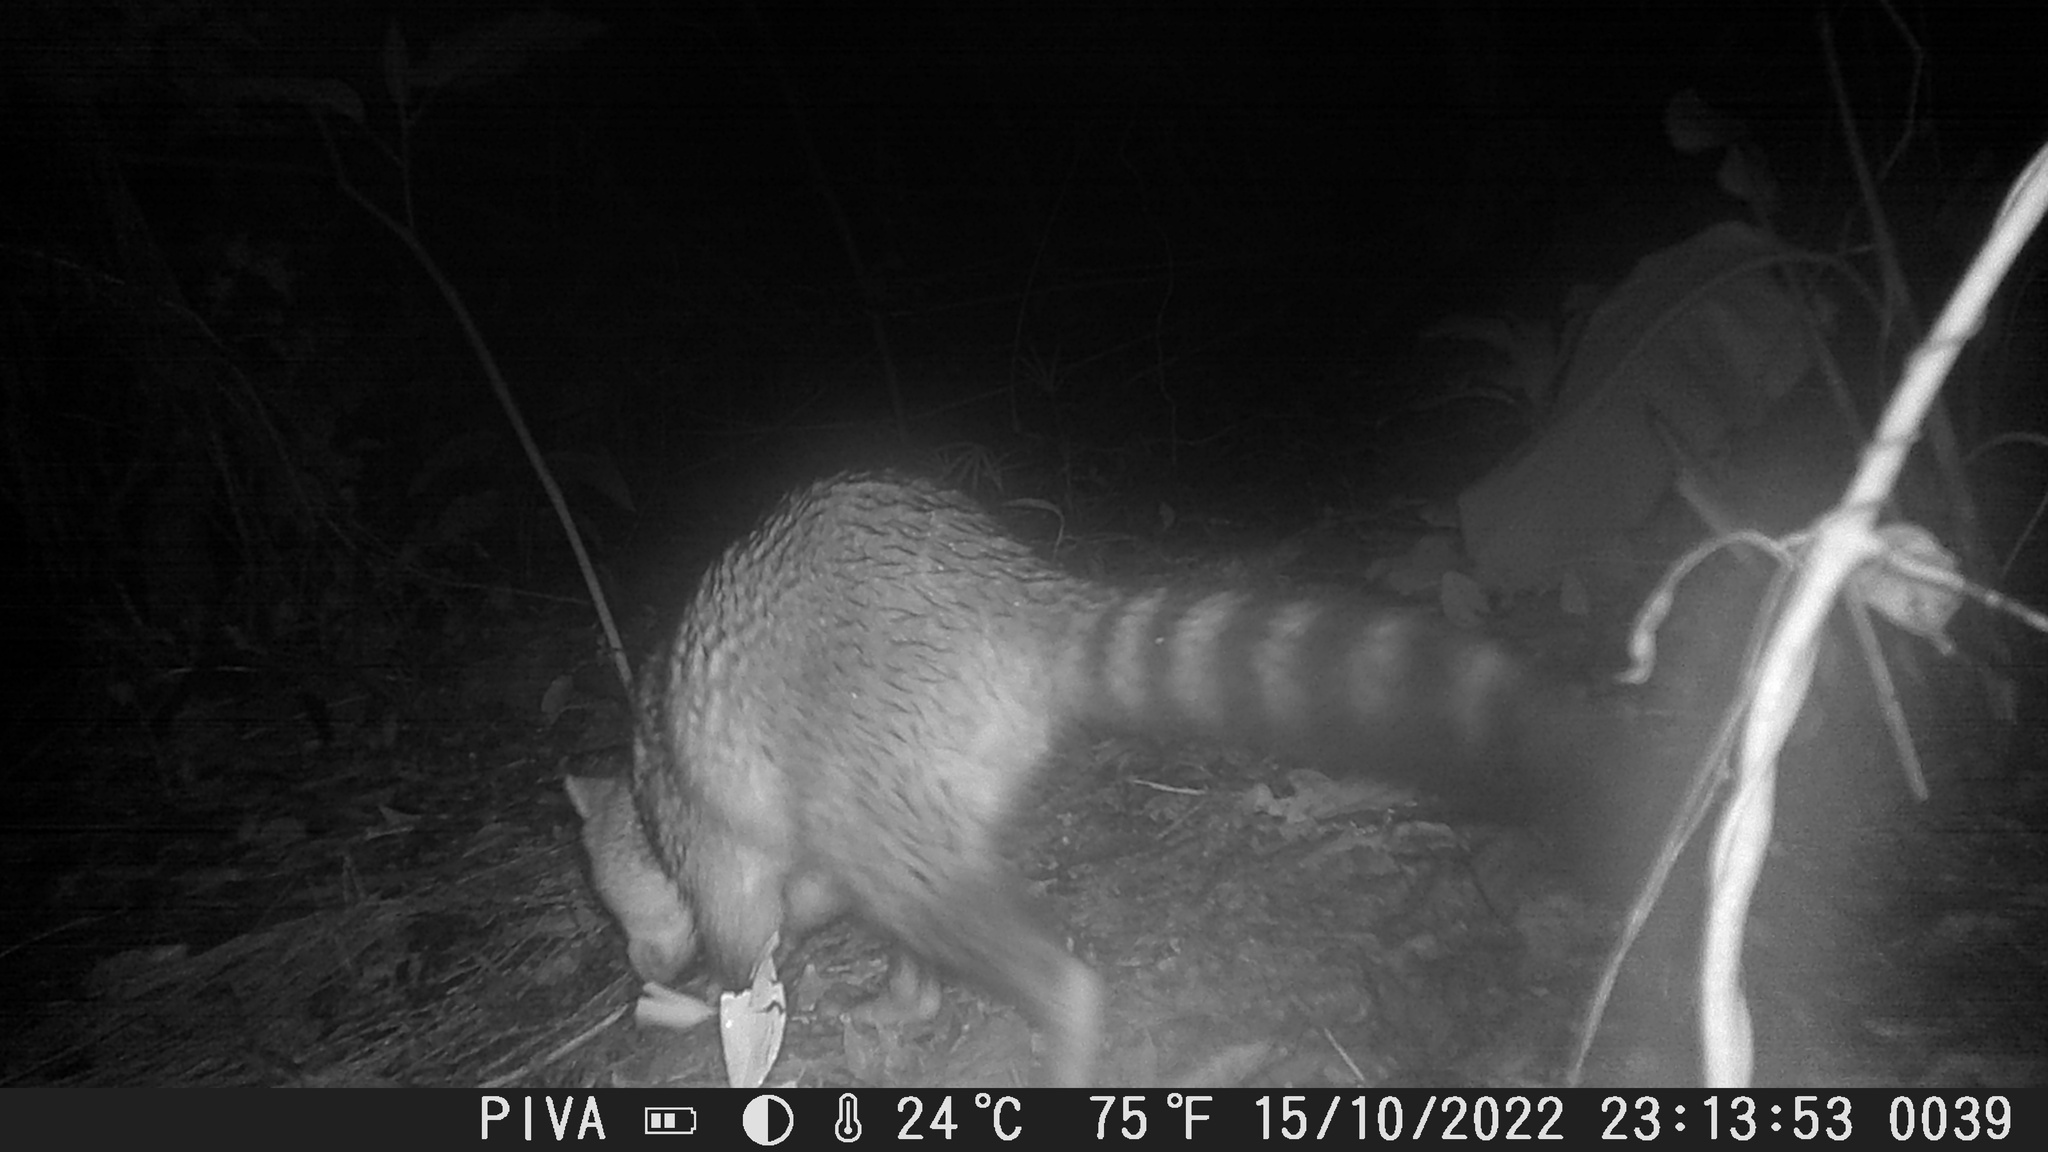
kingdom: Animalia
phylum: Chordata
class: Mammalia
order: Carnivora
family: Procyonidae
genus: Procyon
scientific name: Procyon cancrivorus
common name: Crab-eating raccoon
